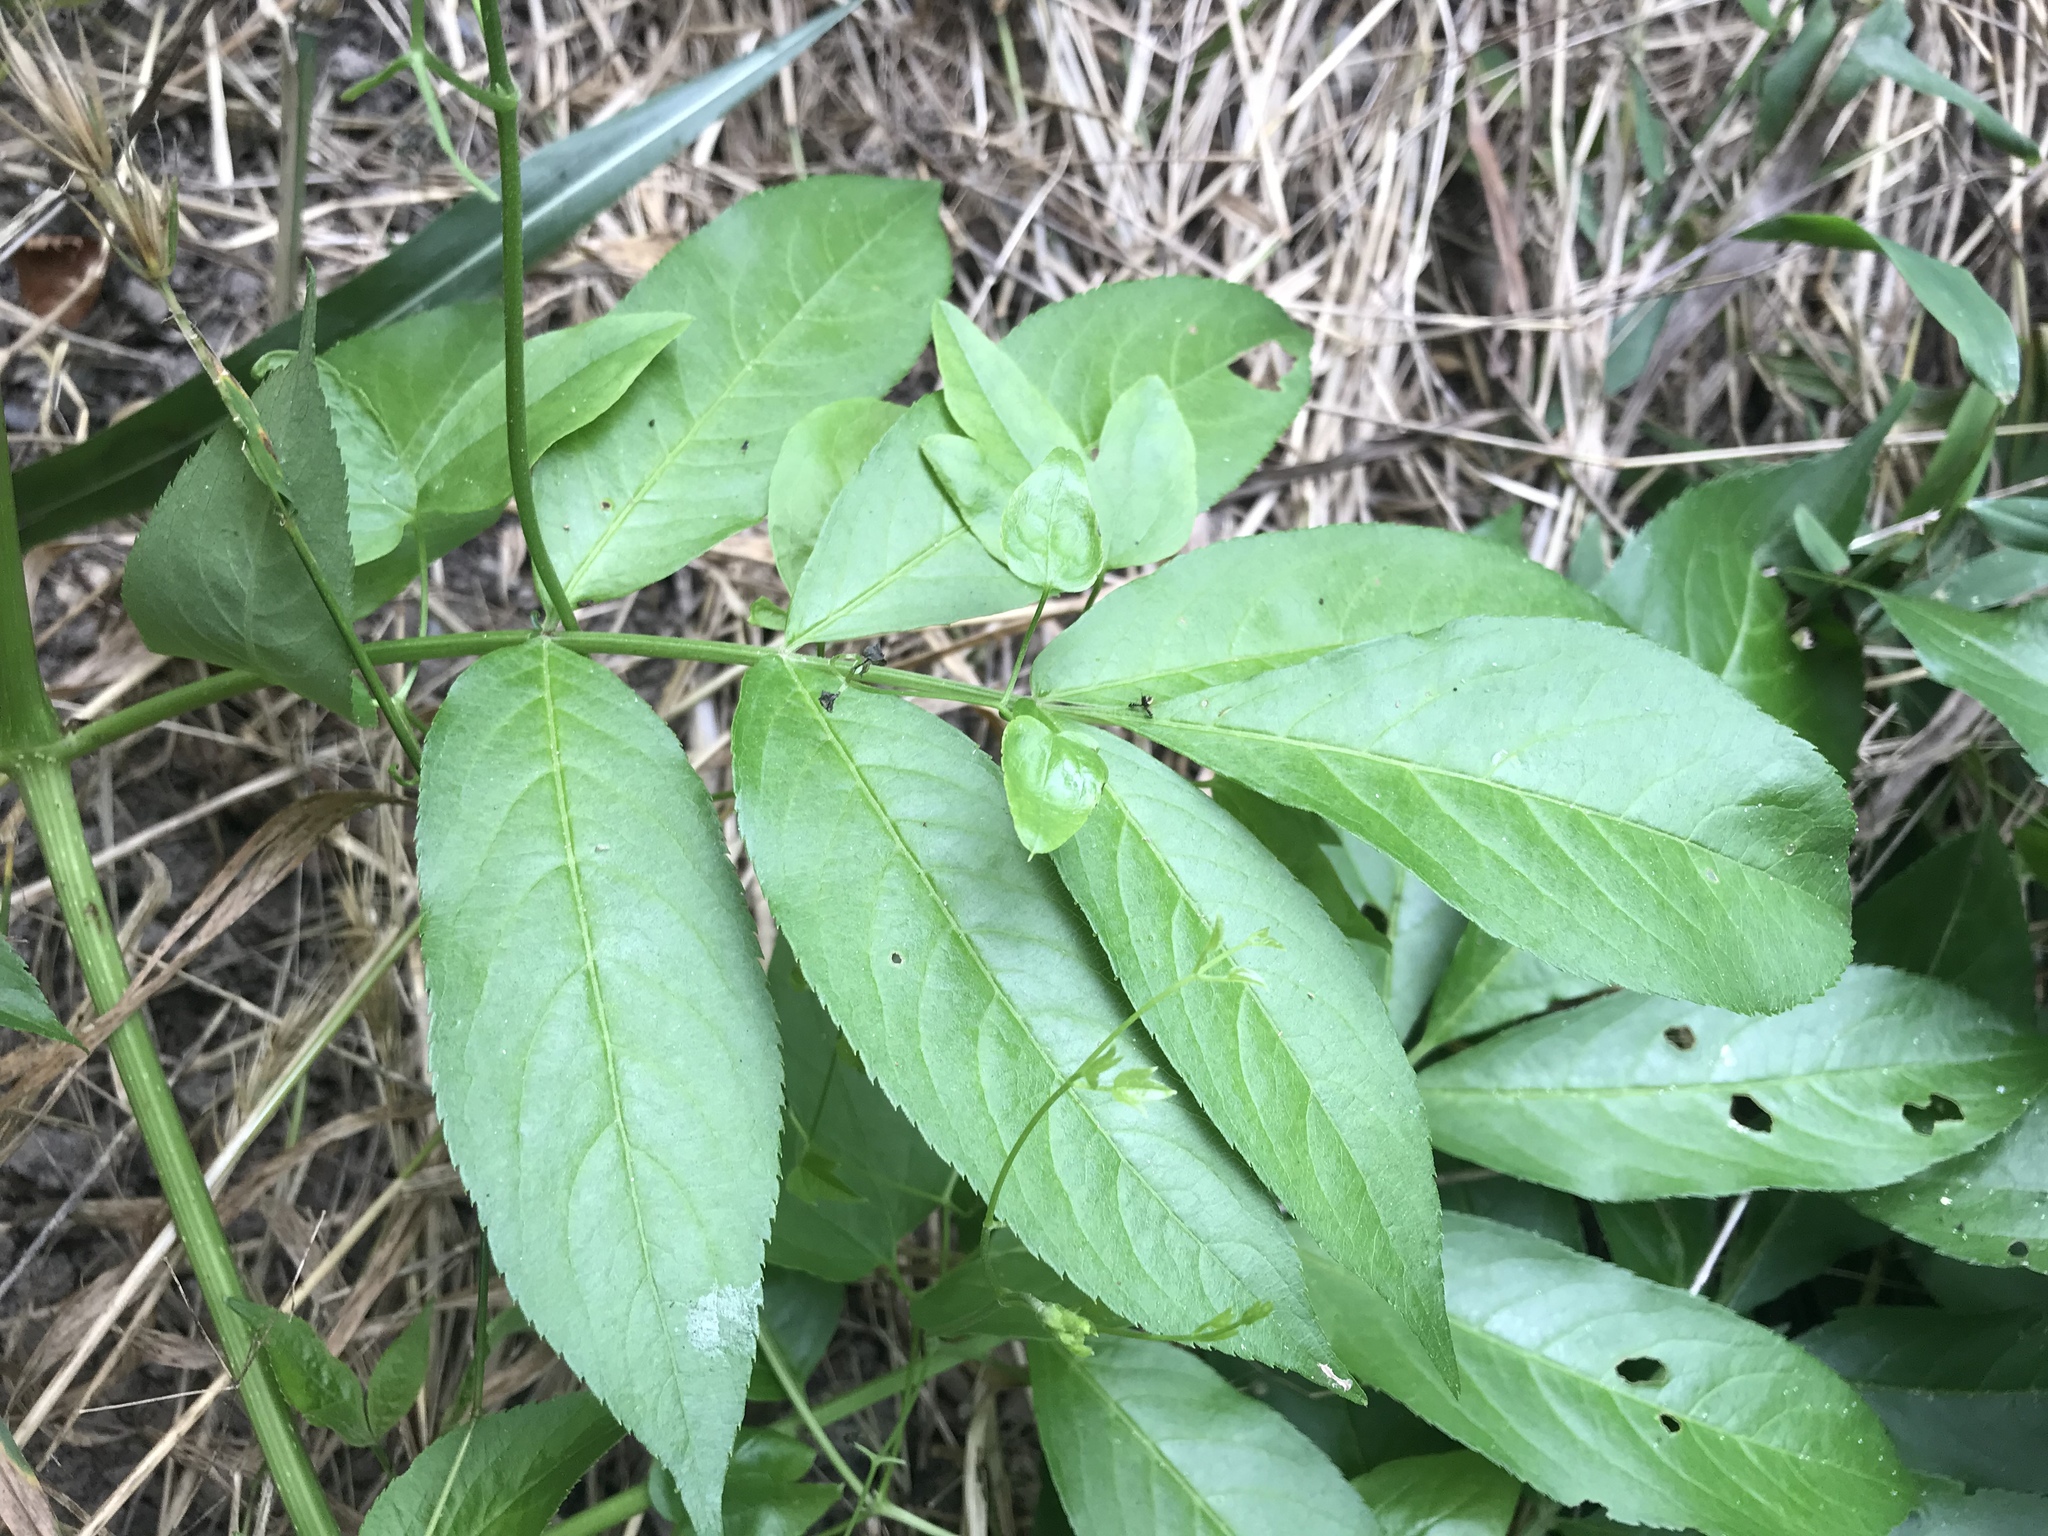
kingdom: Plantae
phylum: Tracheophyta
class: Magnoliopsida
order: Dipsacales
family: Viburnaceae
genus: Sambucus
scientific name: Sambucus canadensis
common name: American elder
